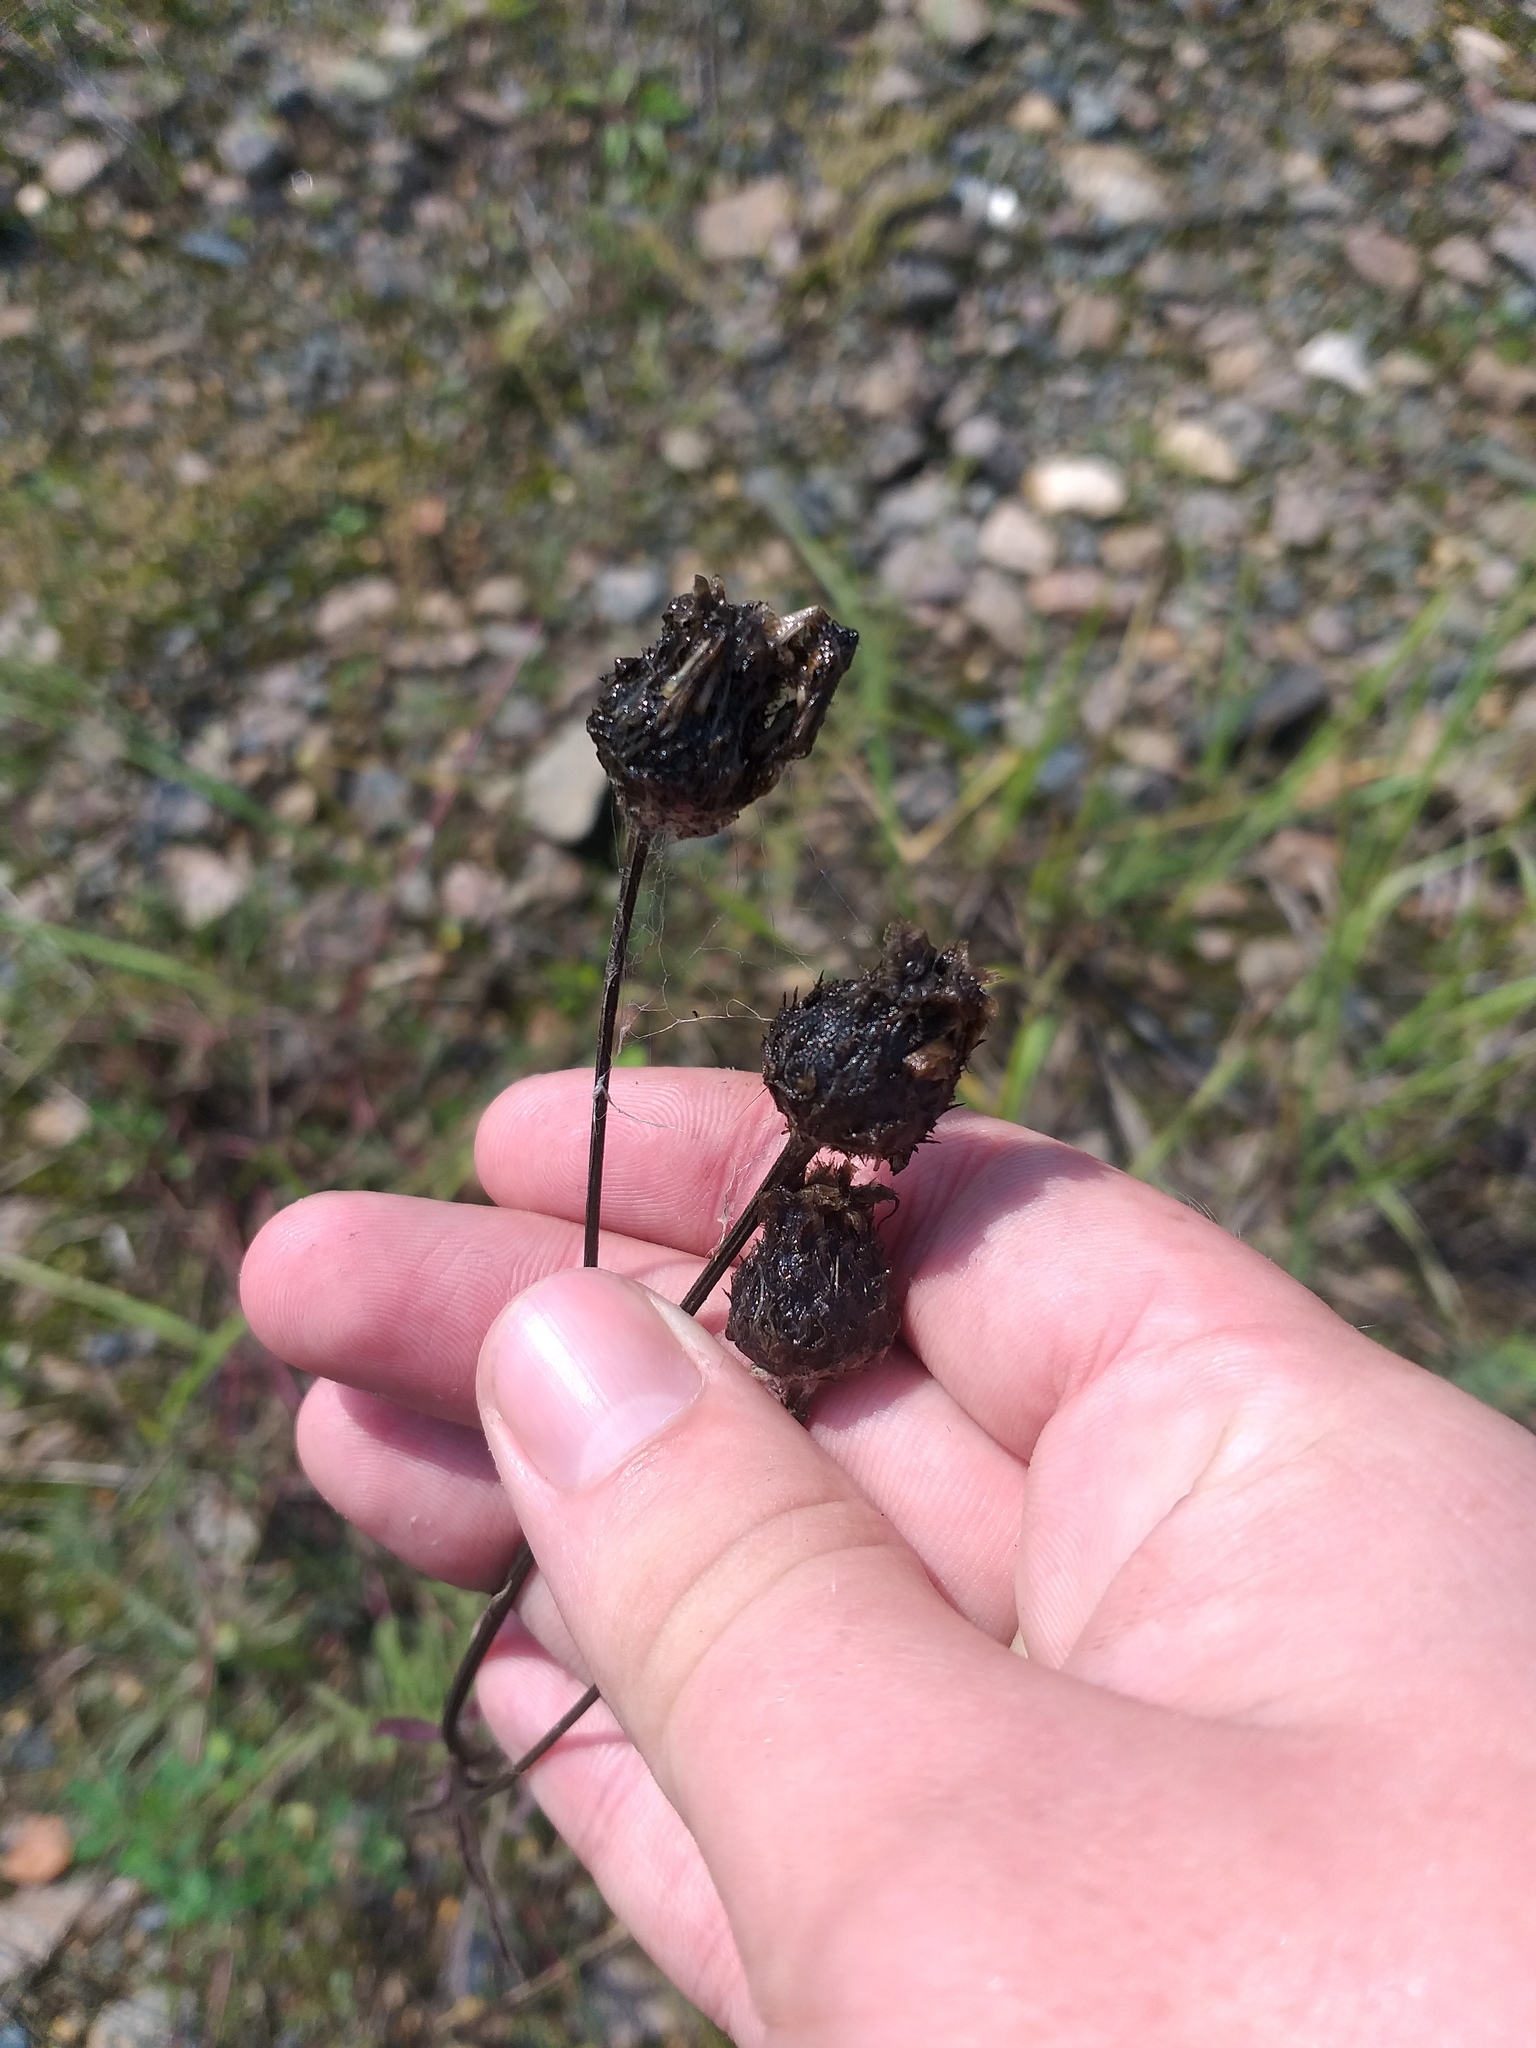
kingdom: Plantae
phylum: Tracheophyta
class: Magnoliopsida
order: Asterales
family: Asteraceae
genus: Centaurea
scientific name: Centaurea scabiosa
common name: Greater knapweed
